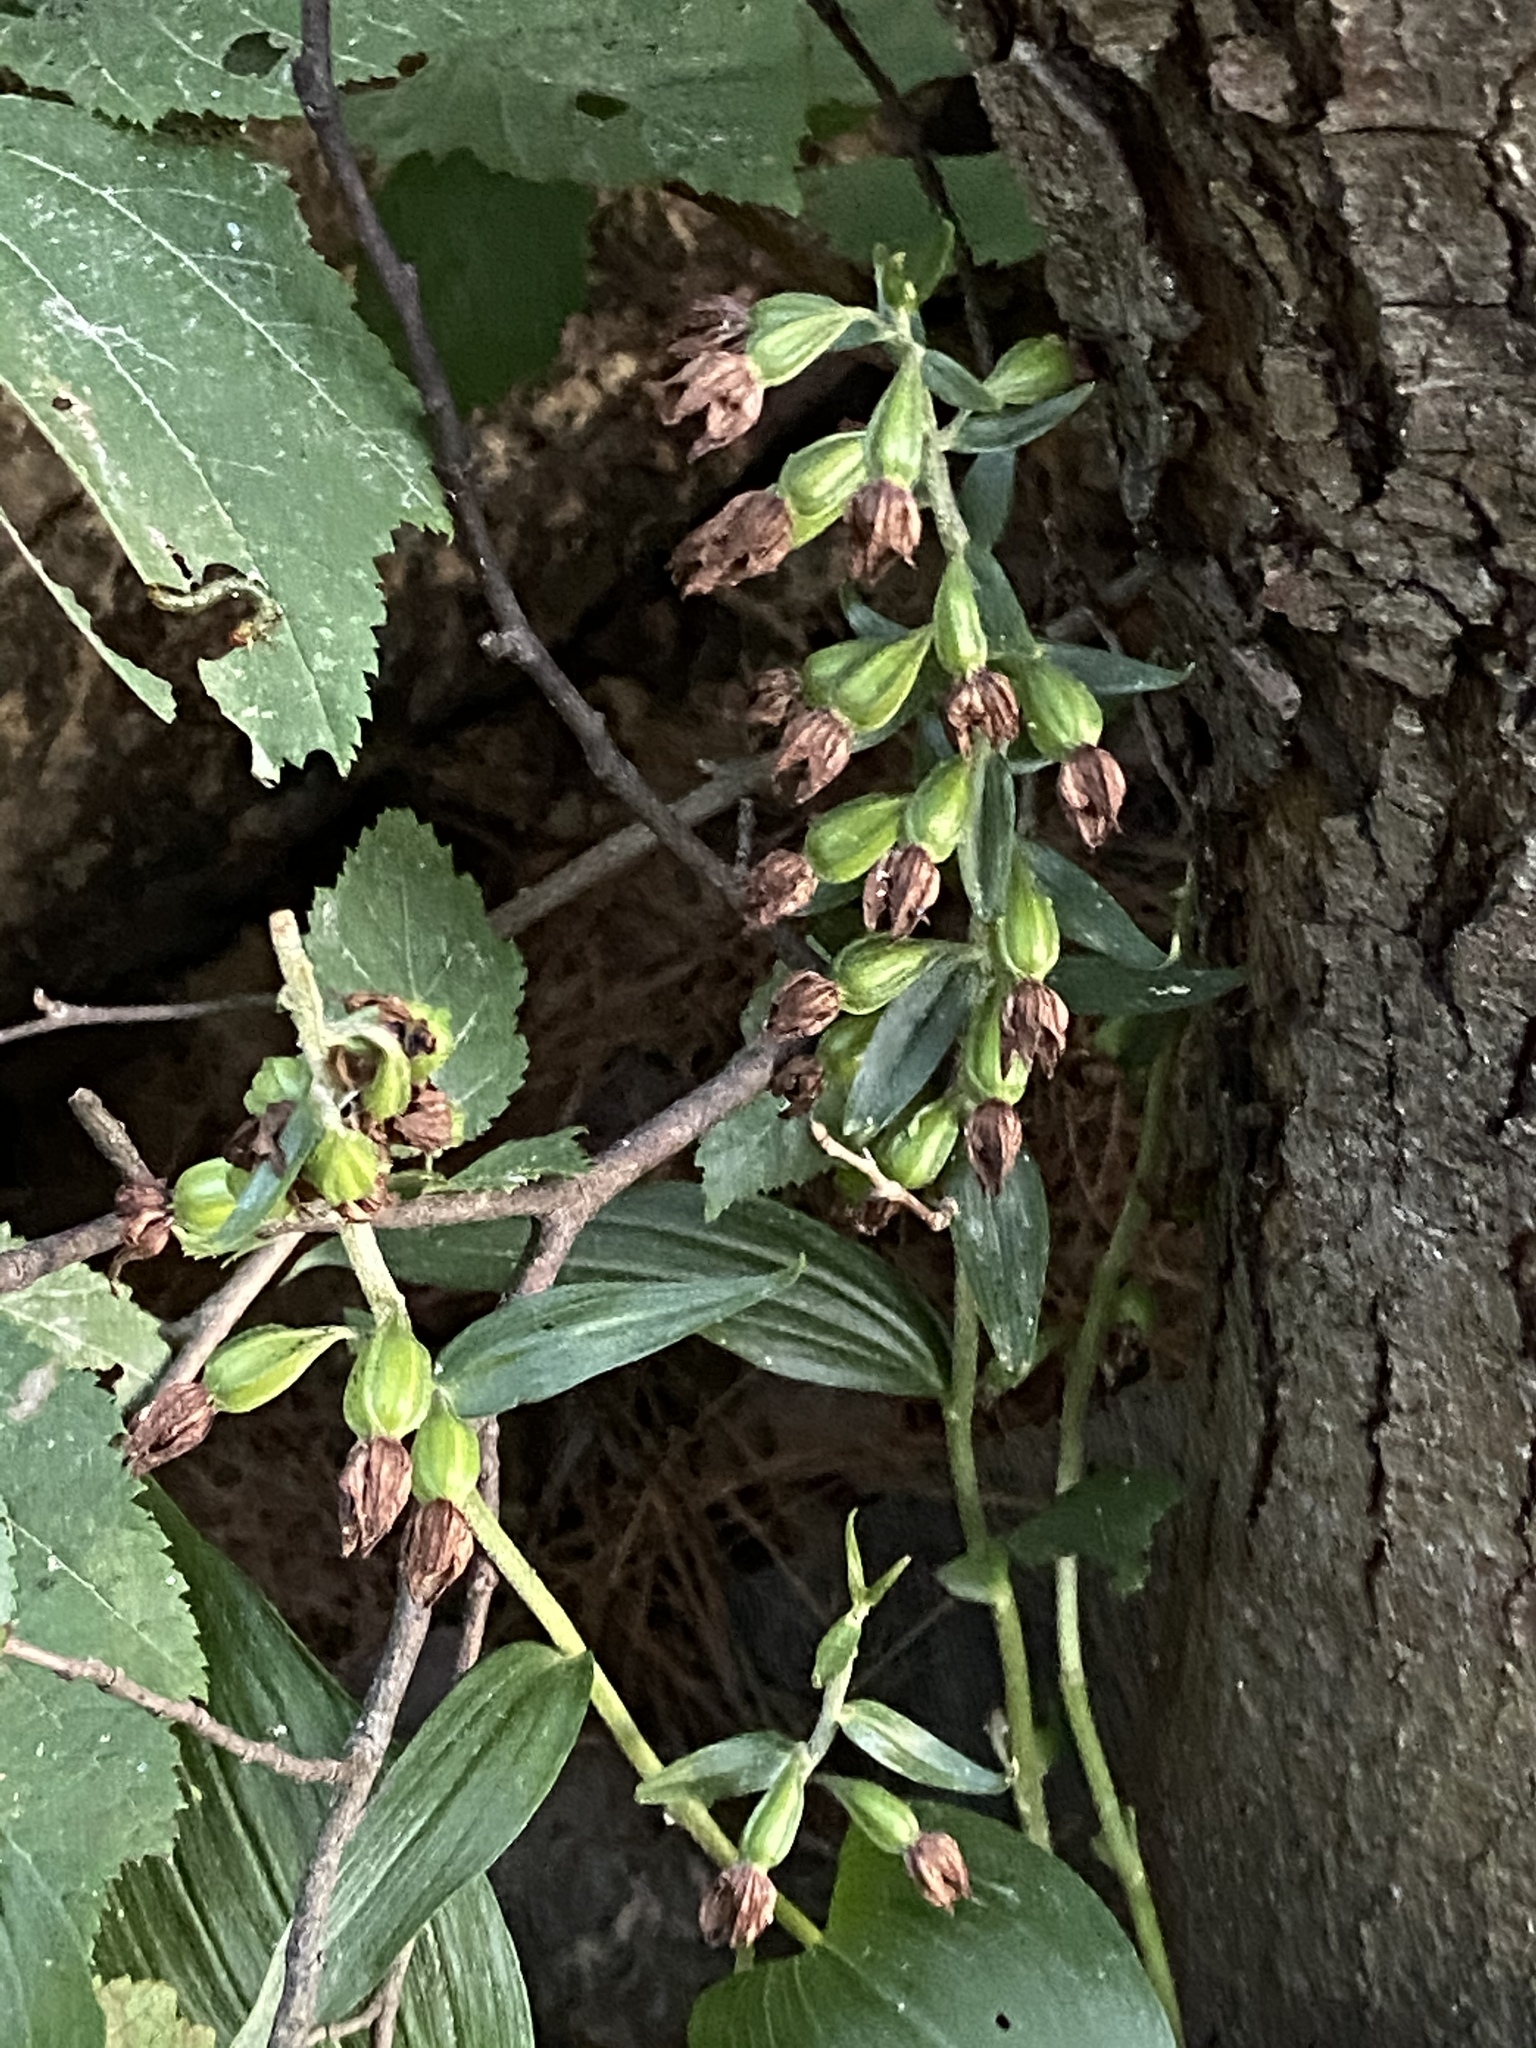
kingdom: Plantae
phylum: Tracheophyta
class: Liliopsida
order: Asparagales
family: Orchidaceae
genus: Epipactis
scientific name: Epipactis helleborine
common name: Broad-leaved helleborine
